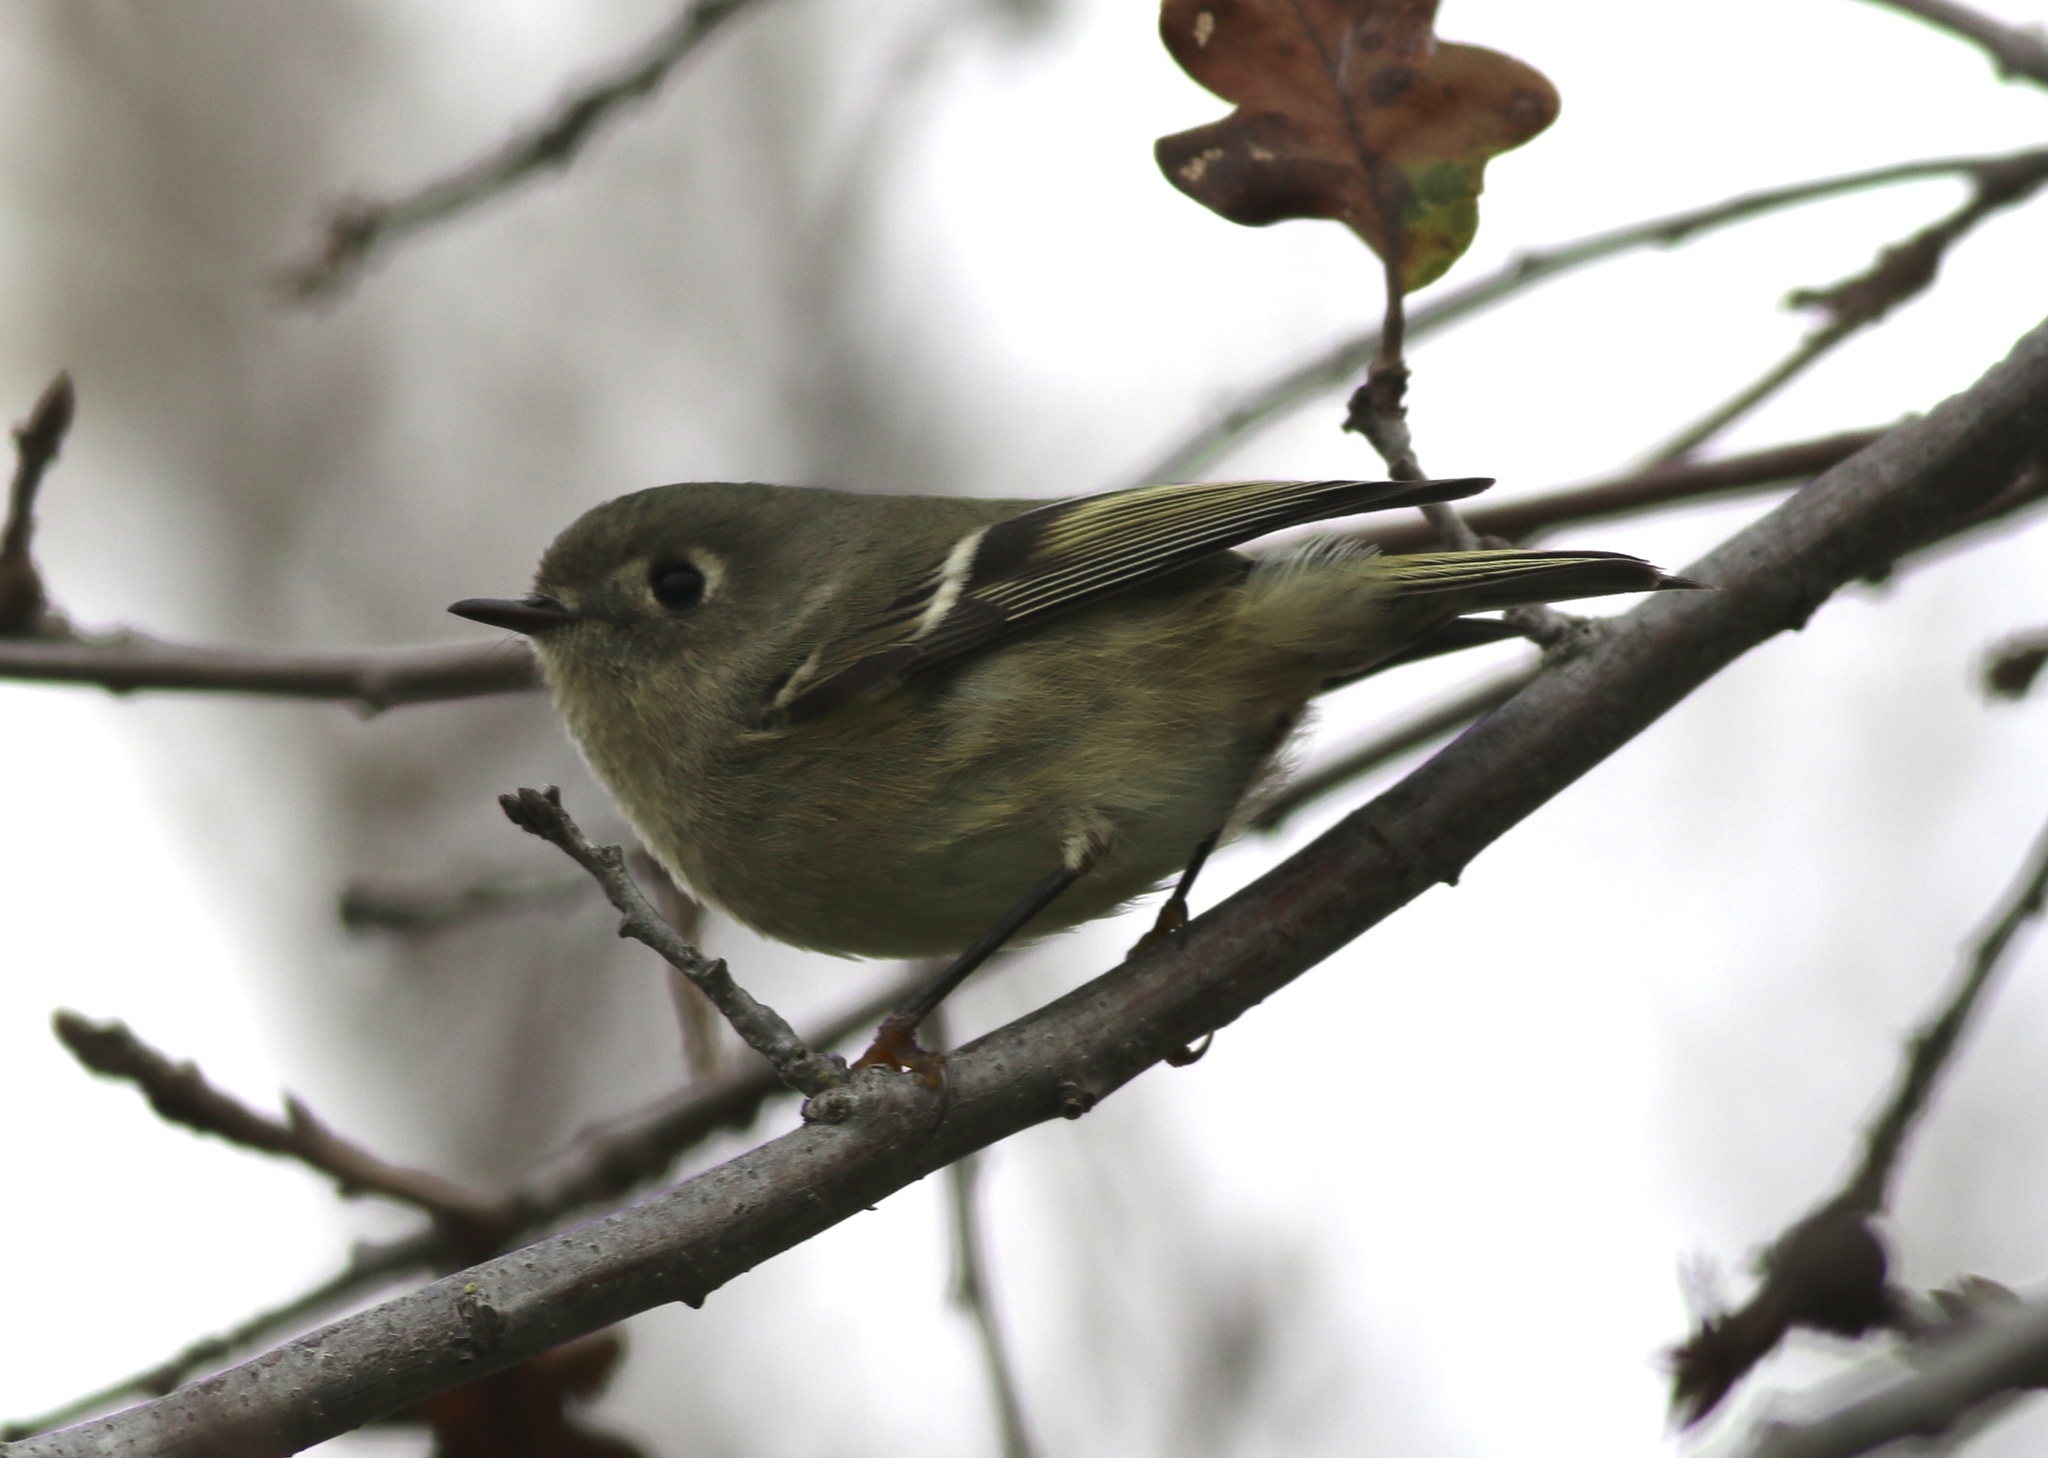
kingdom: Animalia
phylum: Chordata
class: Aves
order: Passeriformes
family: Regulidae
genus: Regulus
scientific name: Regulus calendula
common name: Ruby-crowned kinglet
